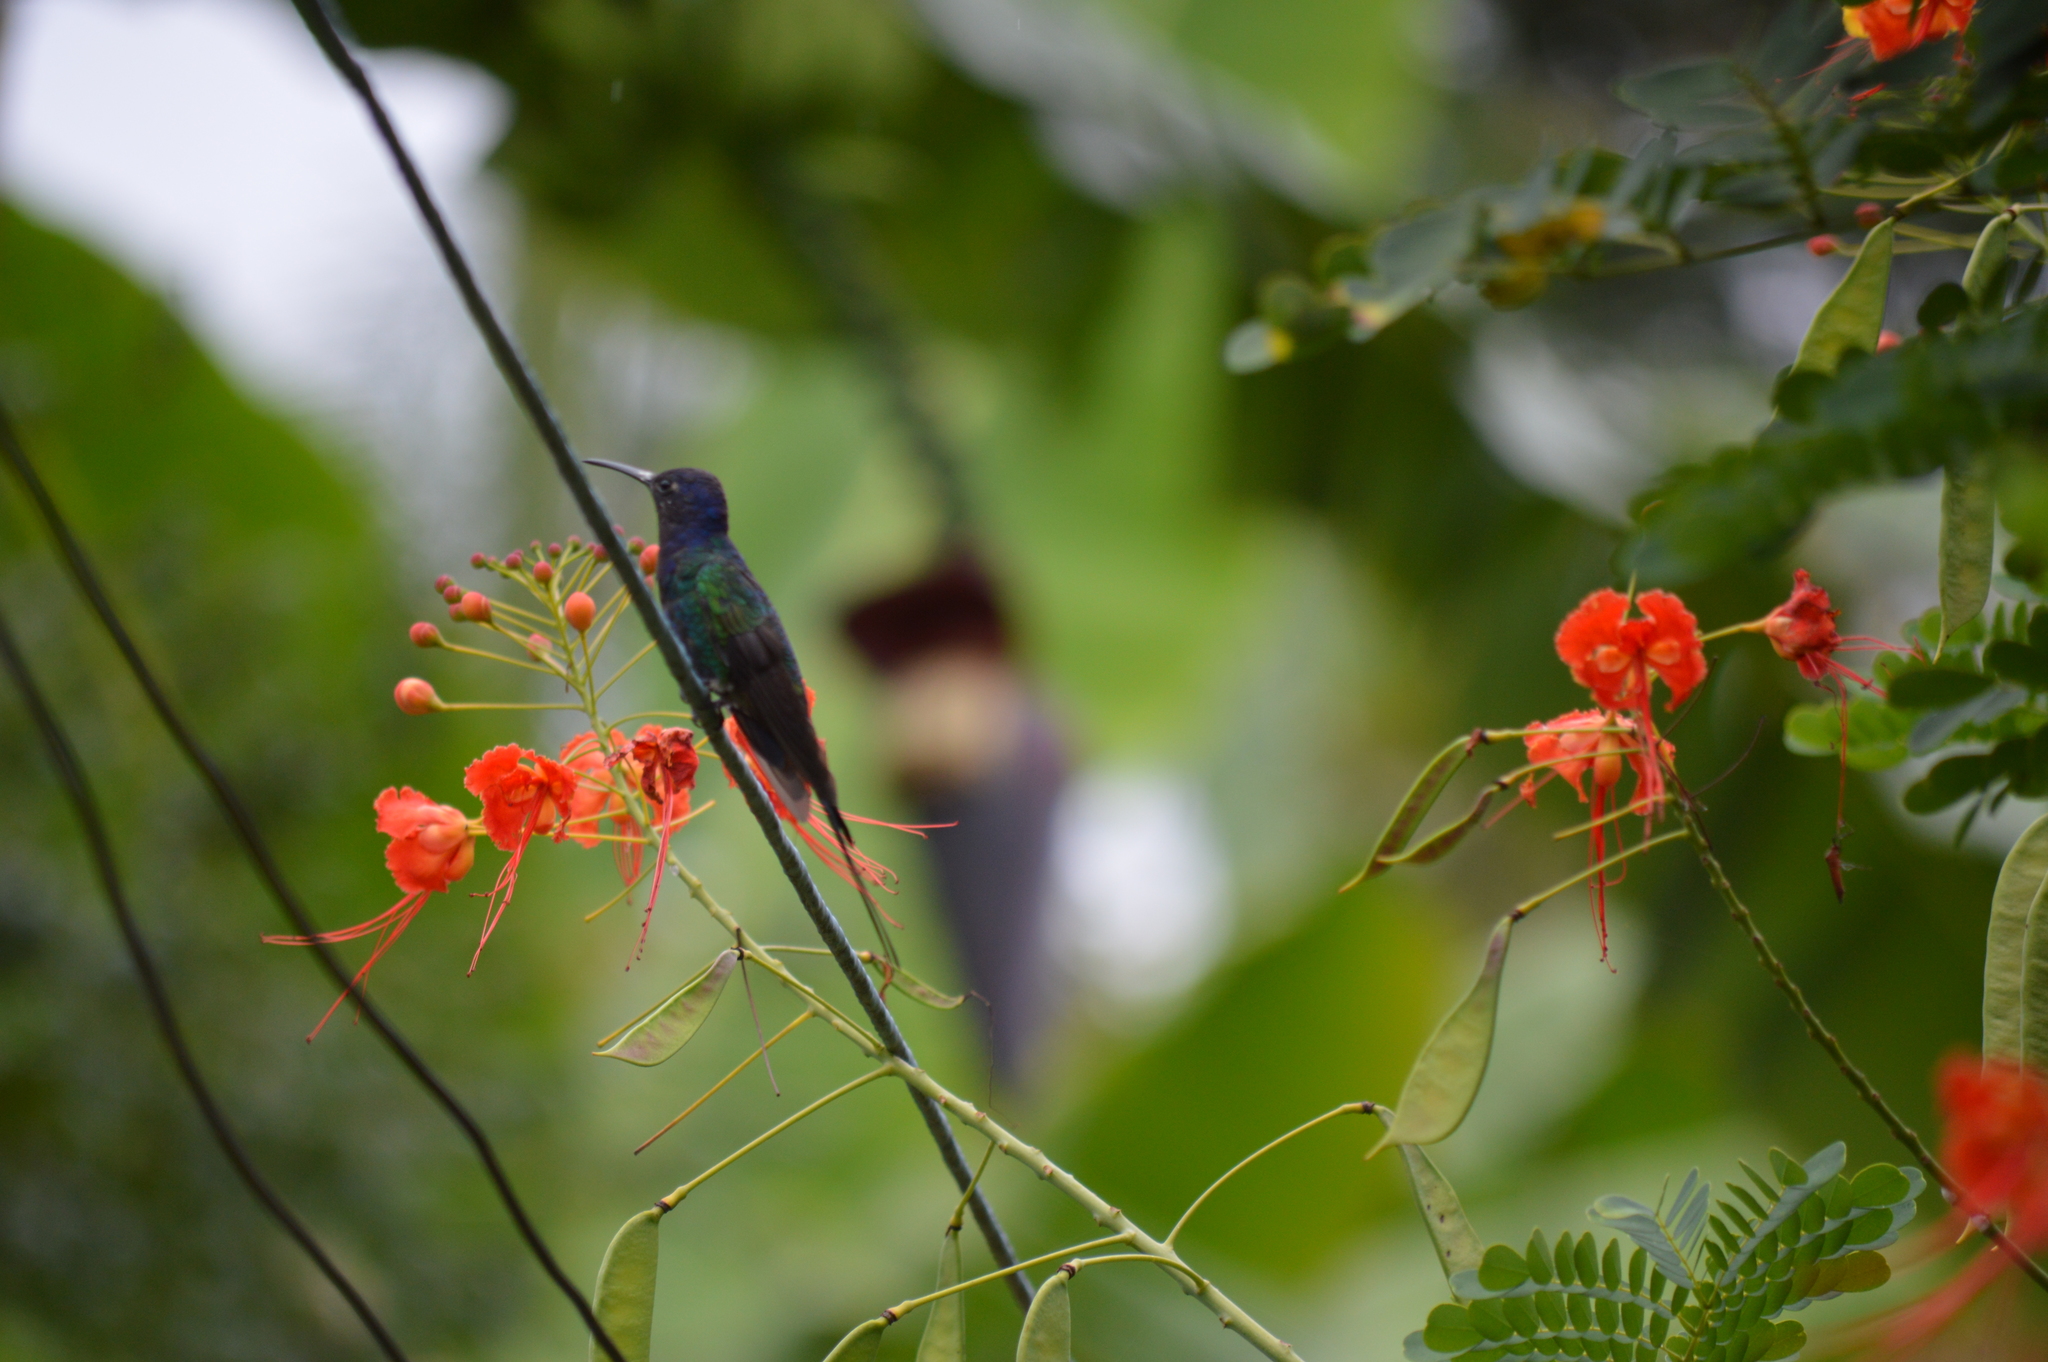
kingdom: Animalia
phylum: Chordata
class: Aves
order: Apodiformes
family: Trochilidae
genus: Eupetomena
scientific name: Eupetomena macroura
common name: Swallow-tailed hummingbird
